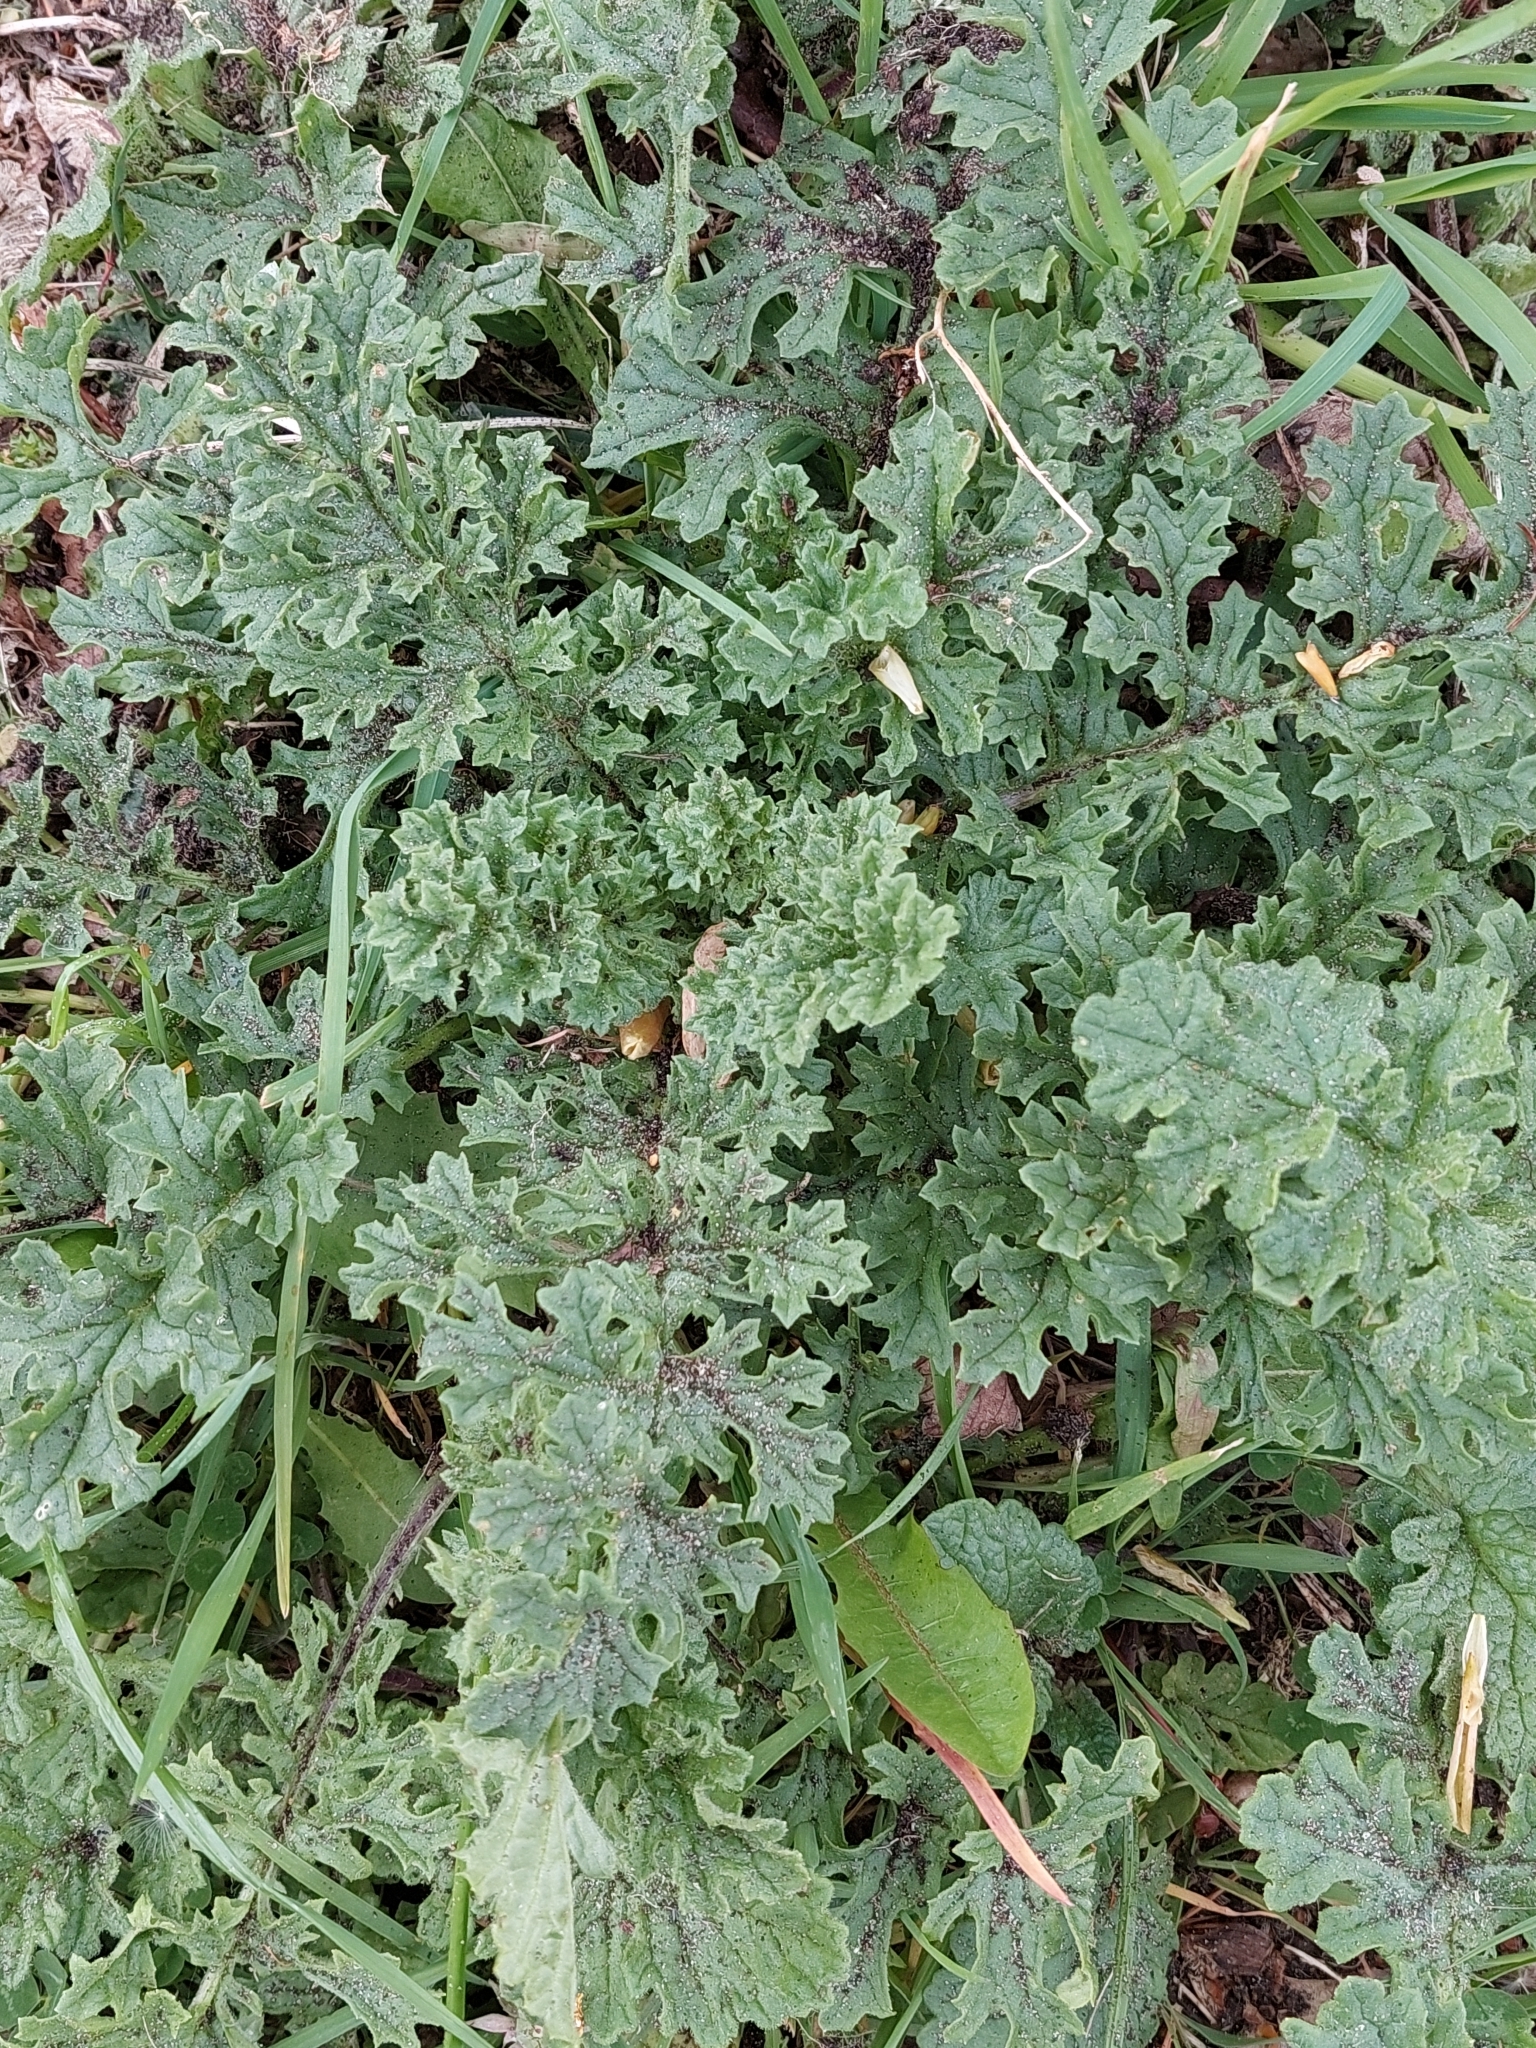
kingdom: Plantae
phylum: Tracheophyta
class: Magnoliopsida
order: Asterales
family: Asteraceae
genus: Jacobaea
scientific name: Jacobaea vulgaris
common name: Stinking willie
